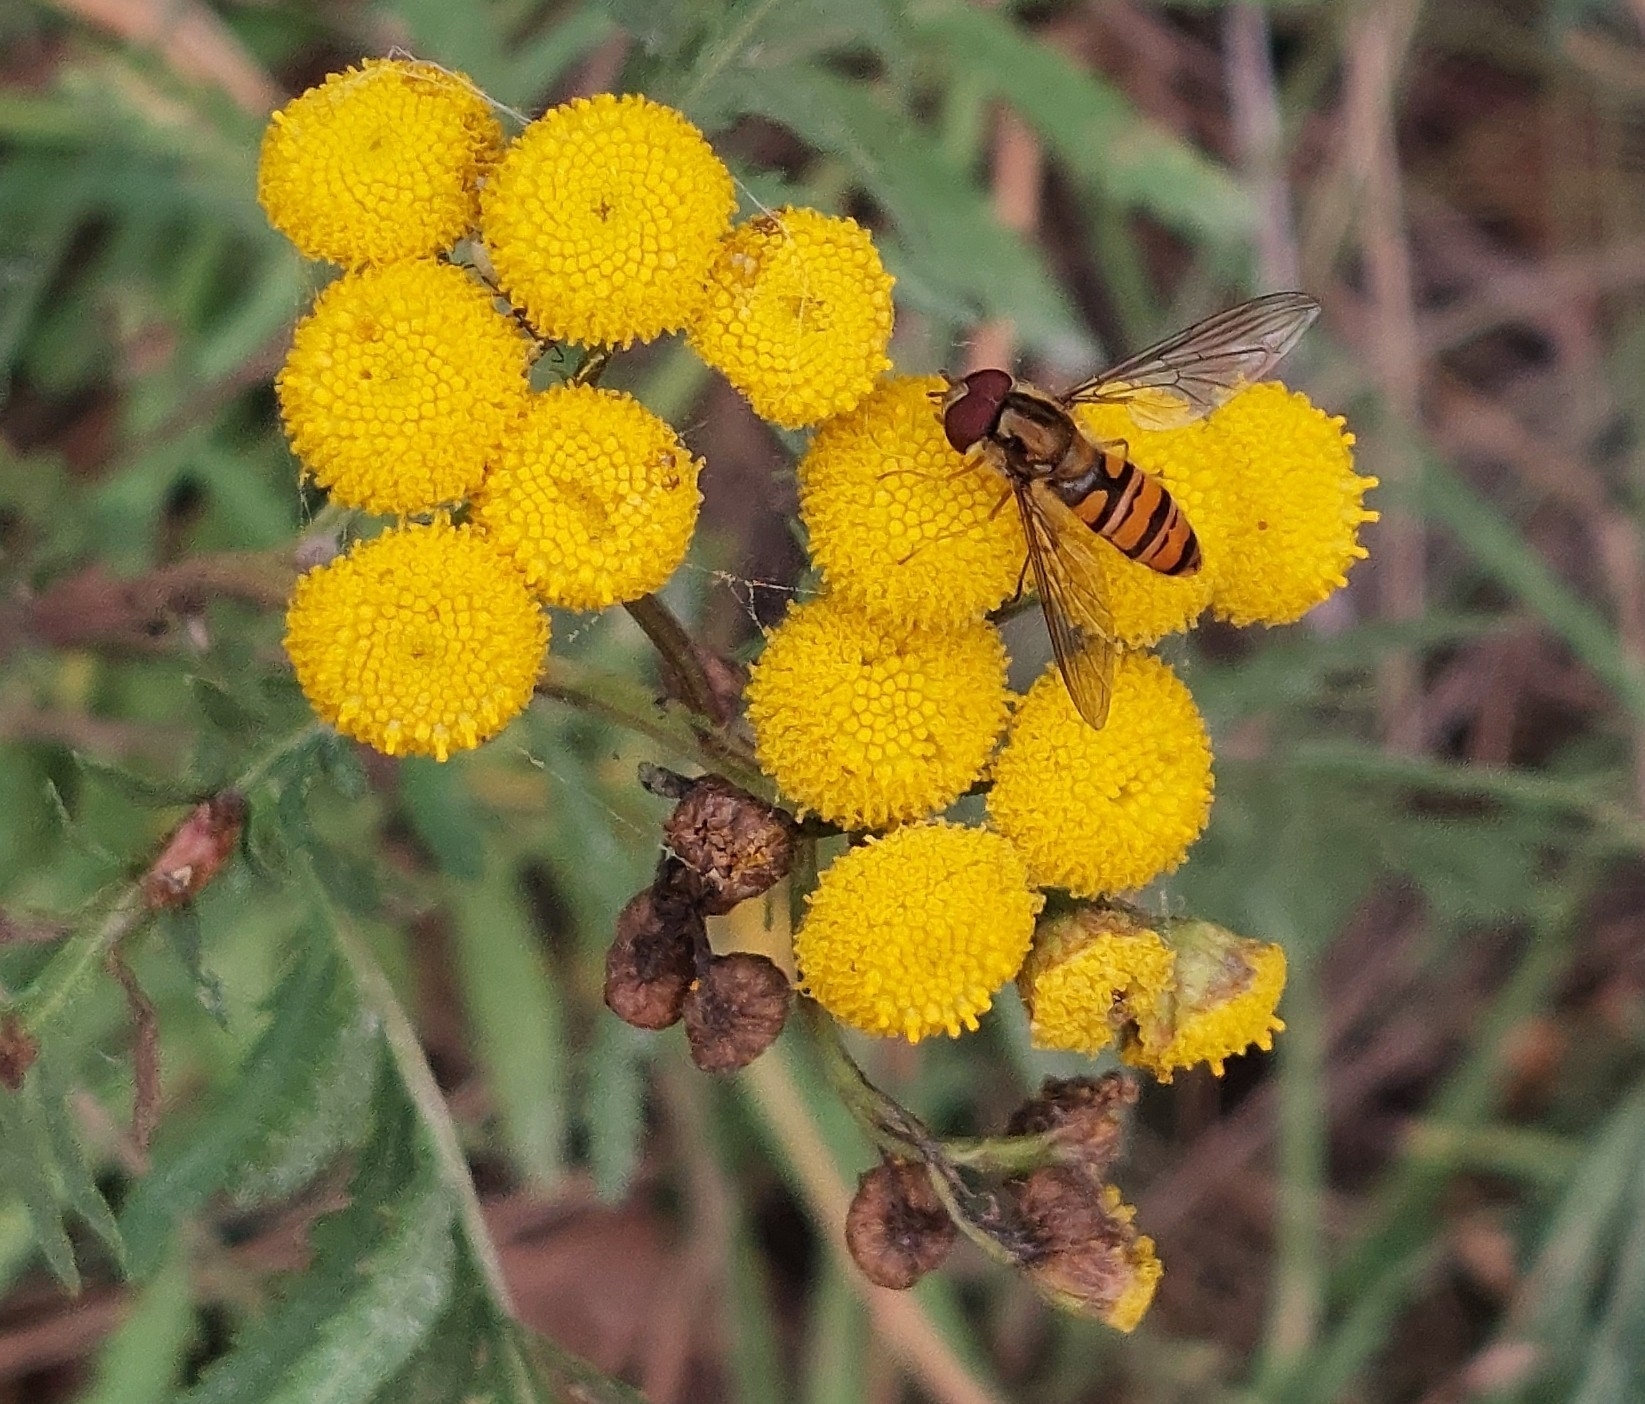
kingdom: Animalia
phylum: Arthropoda
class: Insecta
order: Diptera
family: Syrphidae
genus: Episyrphus
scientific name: Episyrphus balteatus
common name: Marmalade hoverfly
